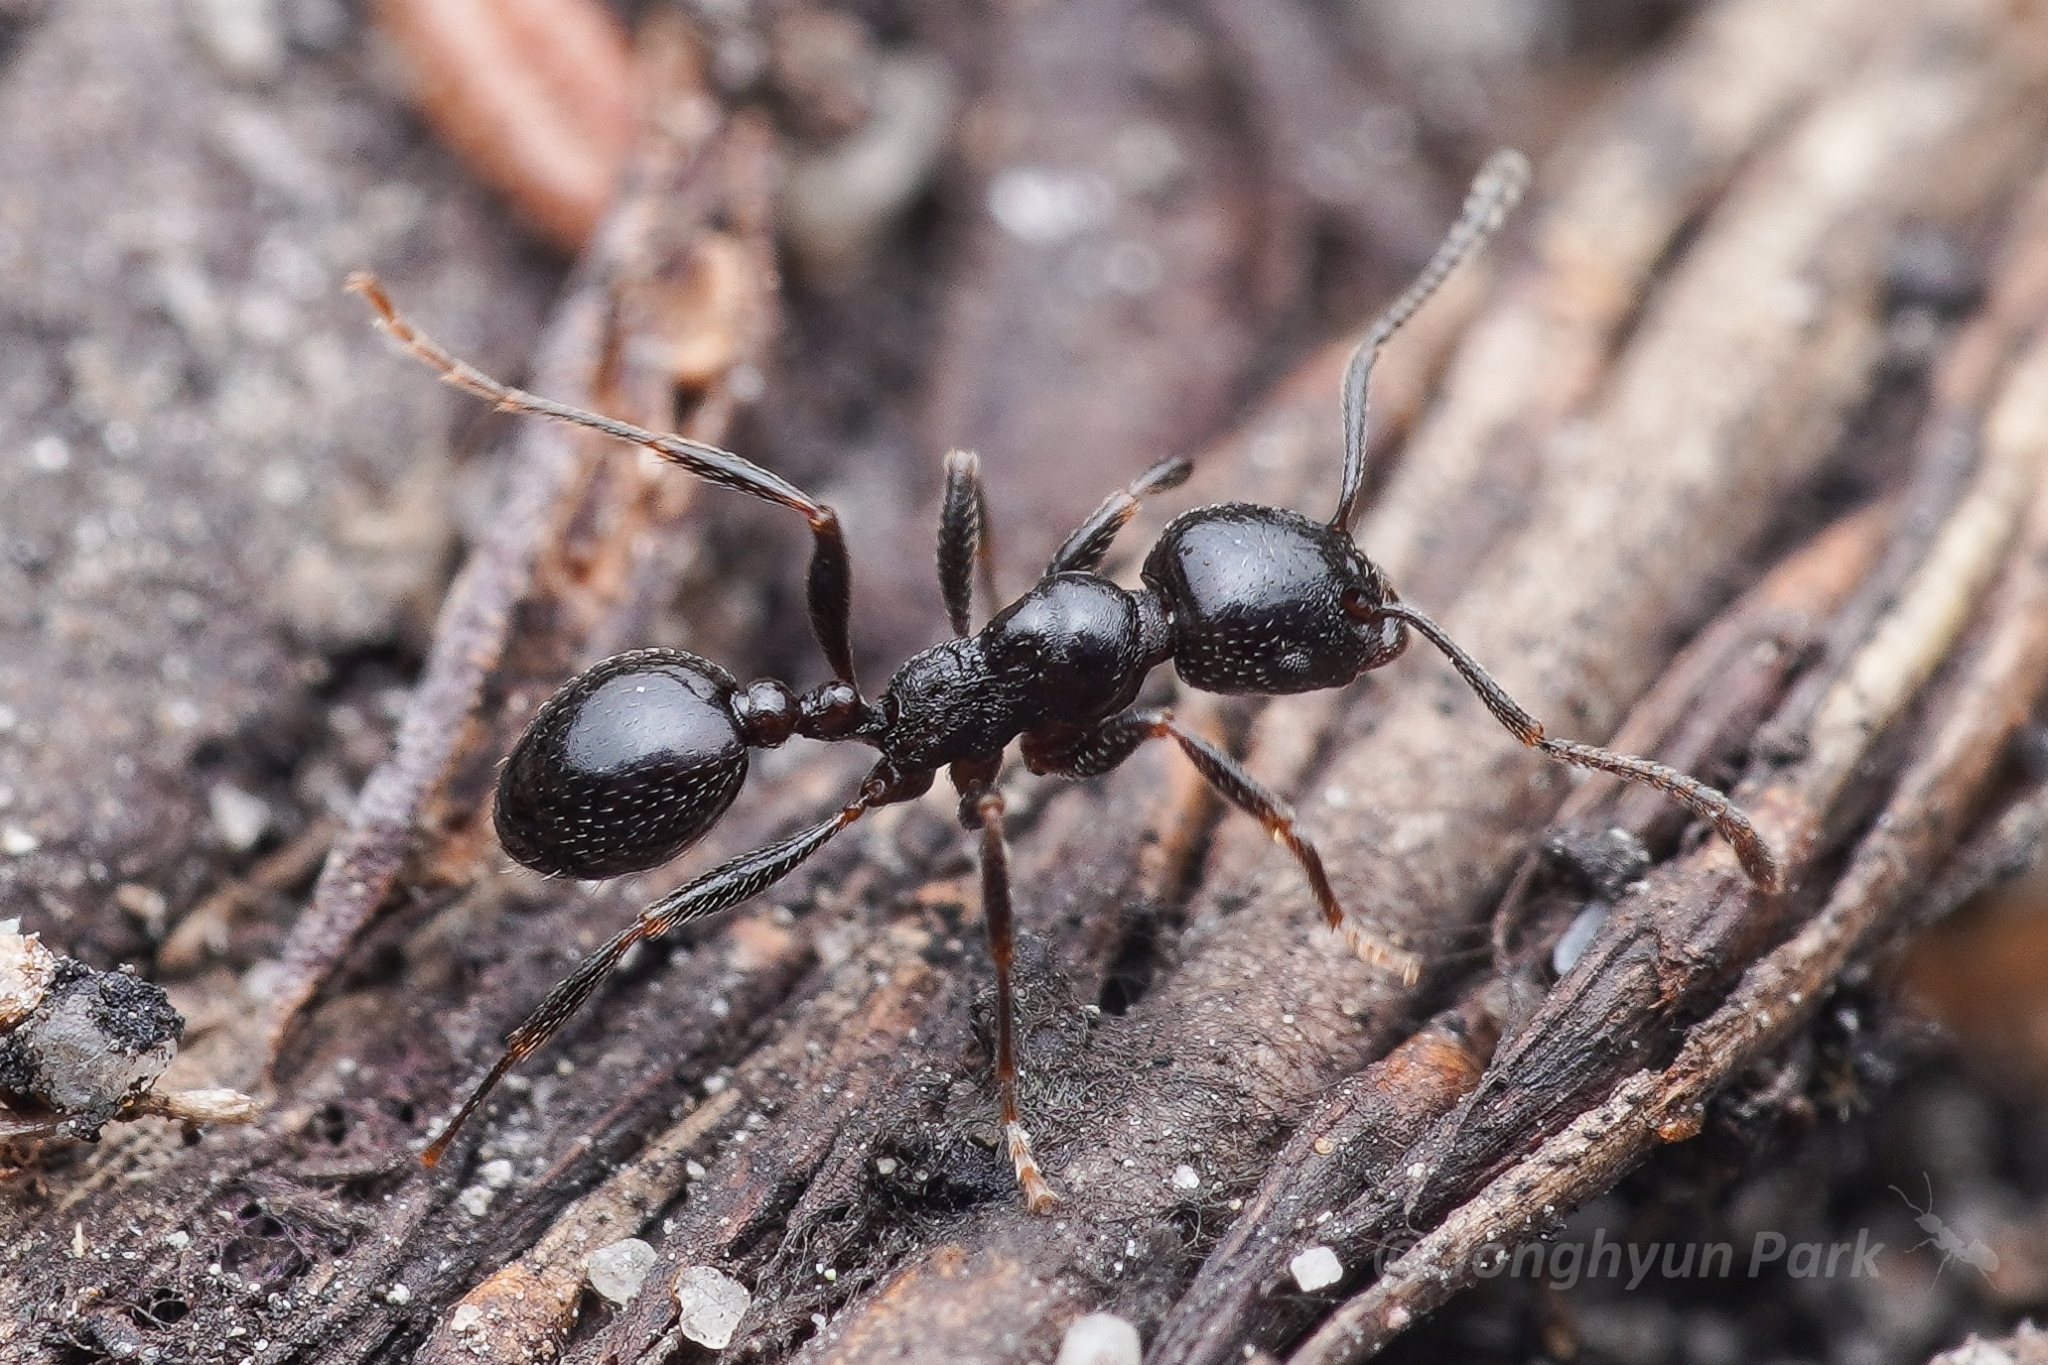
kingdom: Animalia
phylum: Arthropoda
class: Insecta
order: Hymenoptera
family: Formicidae
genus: Tetramorium
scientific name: Tetramorium
